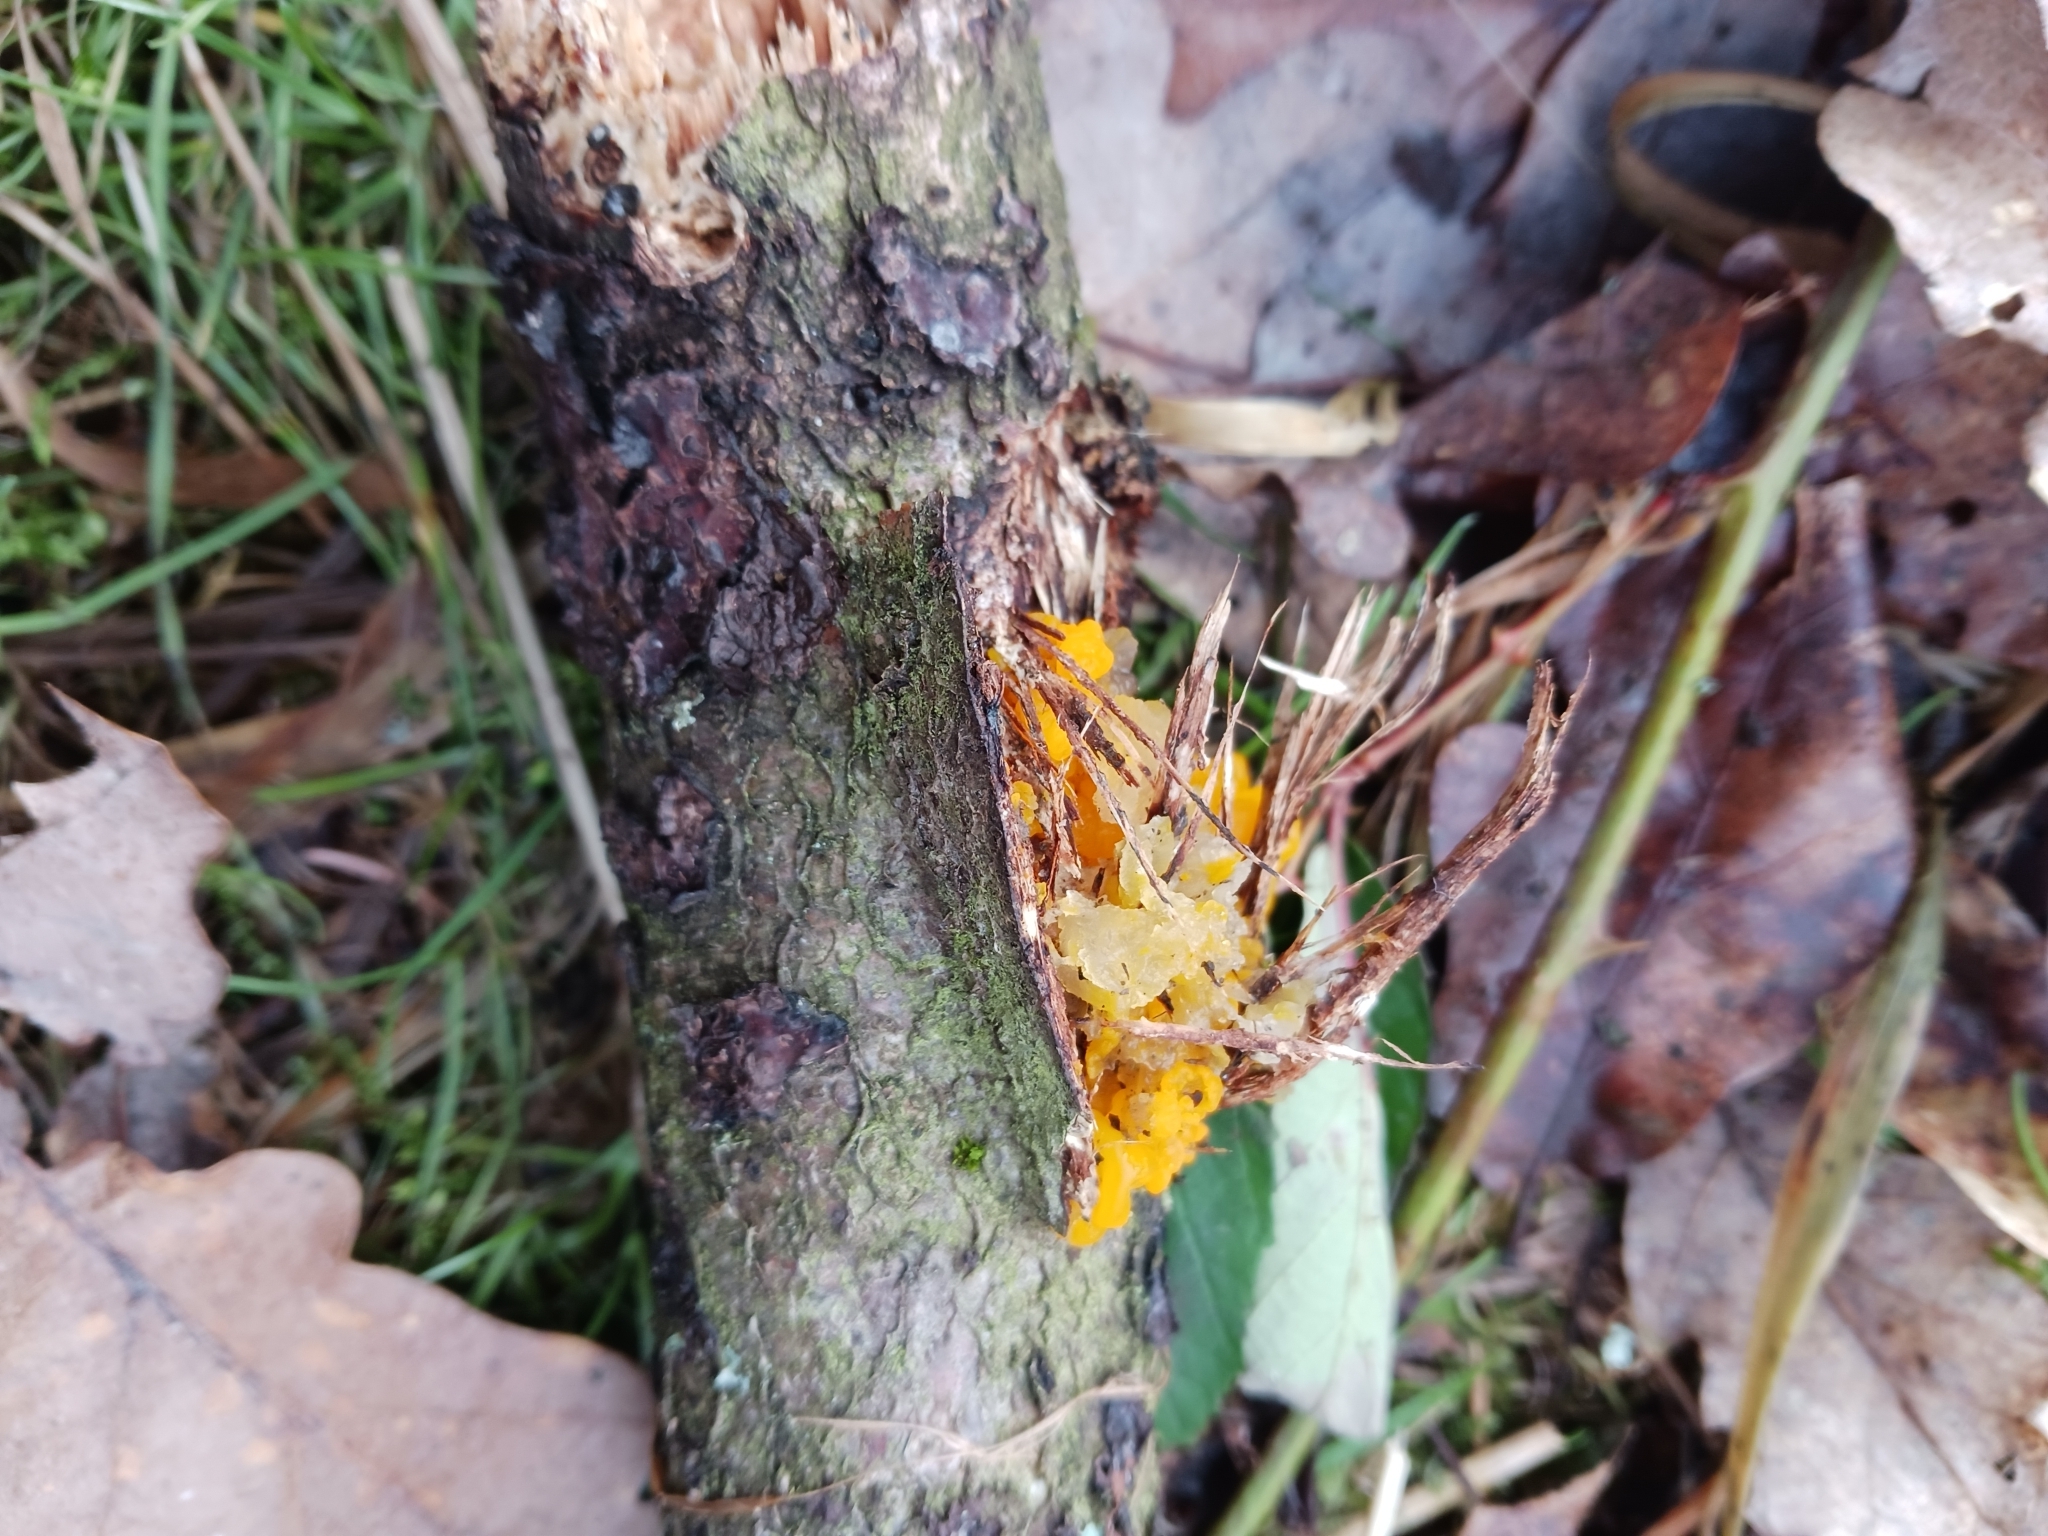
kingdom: Fungi
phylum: Basidiomycota
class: Tremellomycetes
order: Tremellales
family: Tremellaceae
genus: Tremella
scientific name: Tremella mesenterica
